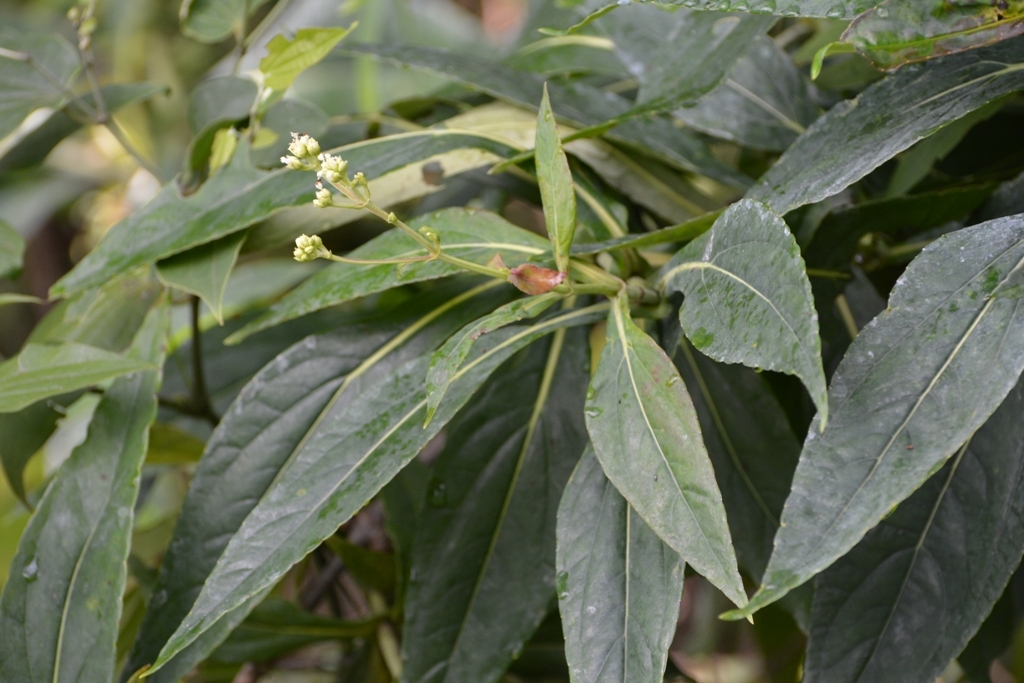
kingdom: Plantae
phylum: Tracheophyta
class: Magnoliopsida
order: Asterales
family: Asteraceae
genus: Desmanthodium
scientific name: Desmanthodium perfoliatum
